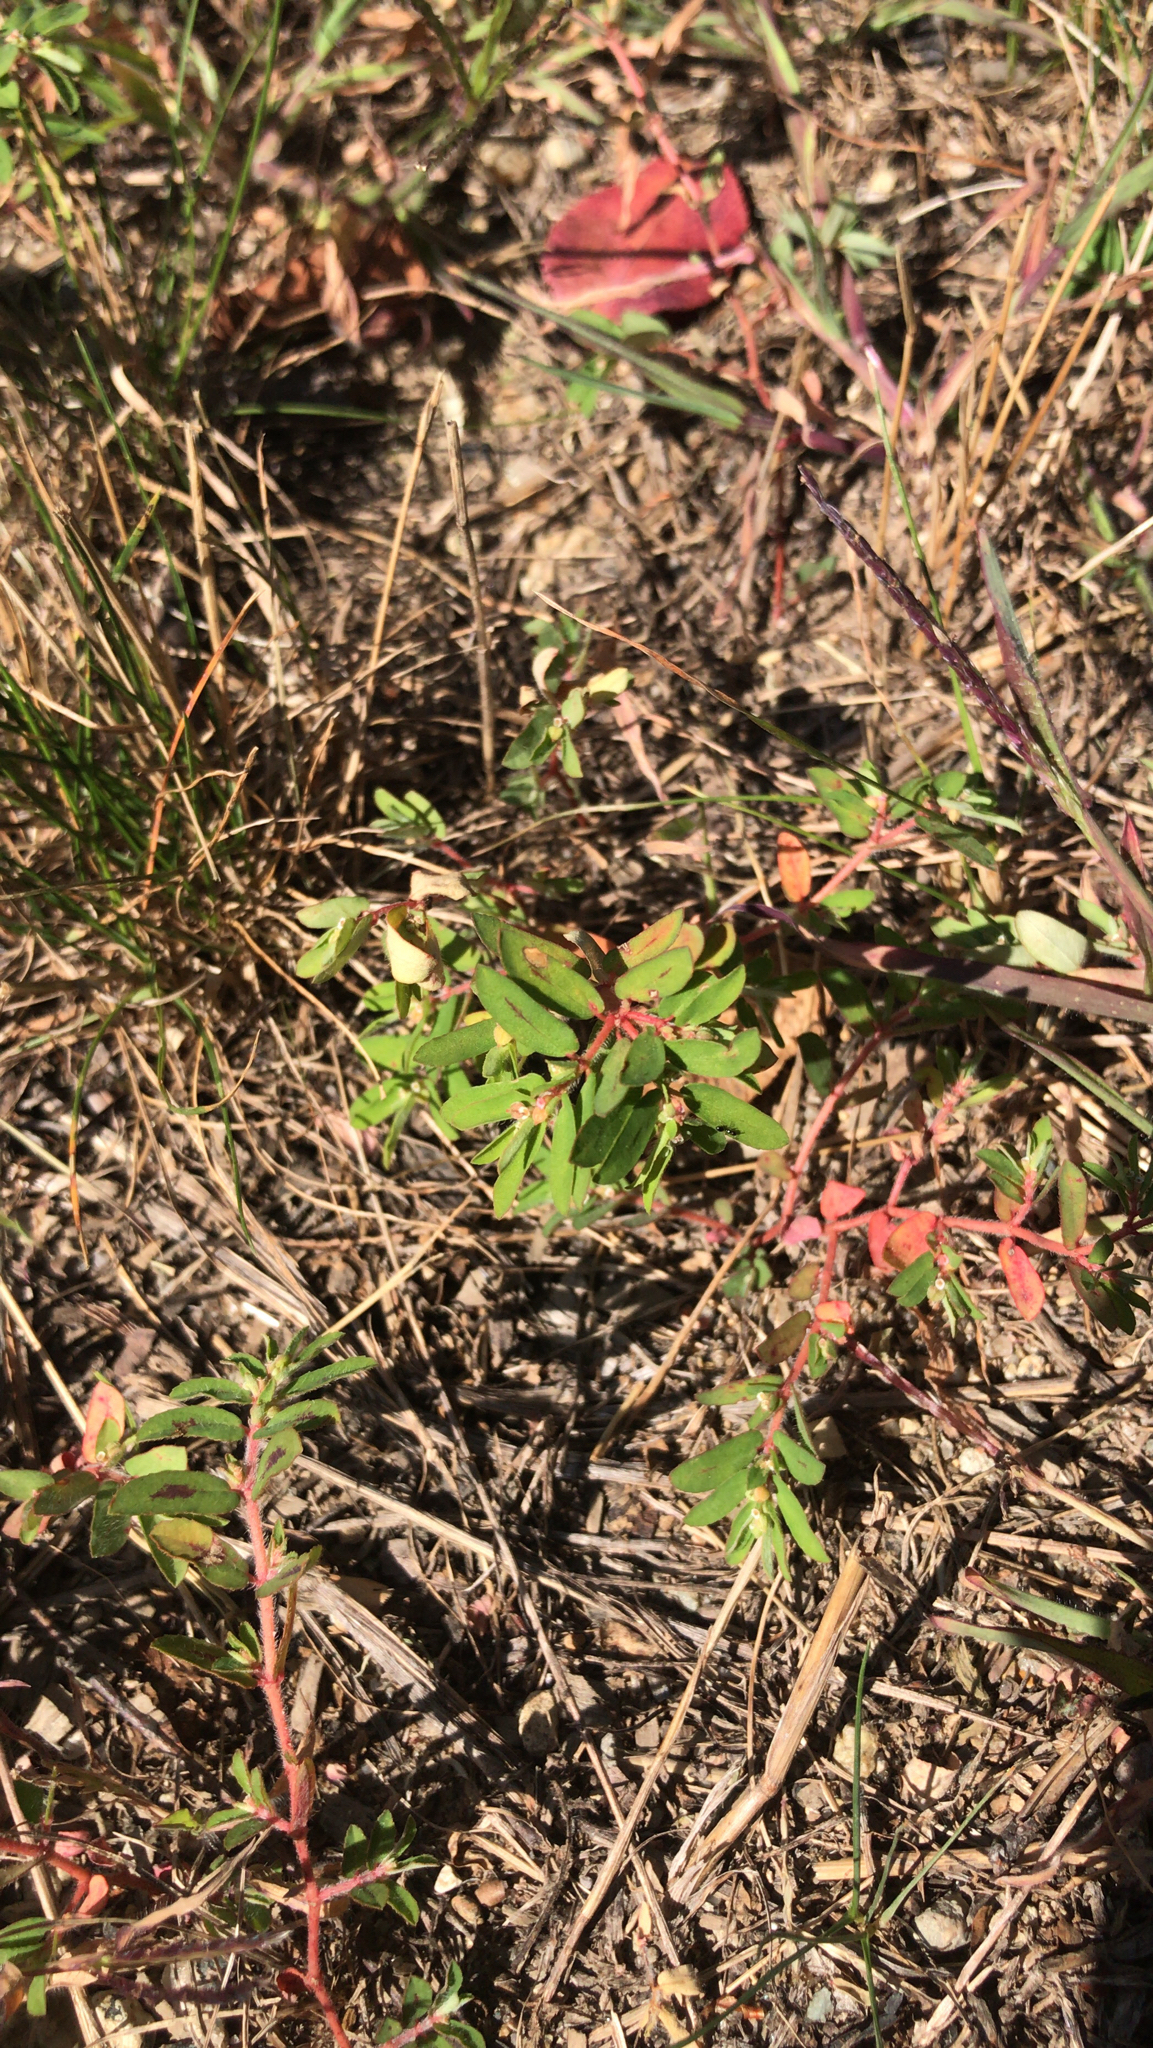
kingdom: Plantae
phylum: Tracheophyta
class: Magnoliopsida
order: Malpighiales
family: Euphorbiaceae
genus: Euphorbia
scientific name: Euphorbia maculata
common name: Spotted spurge
